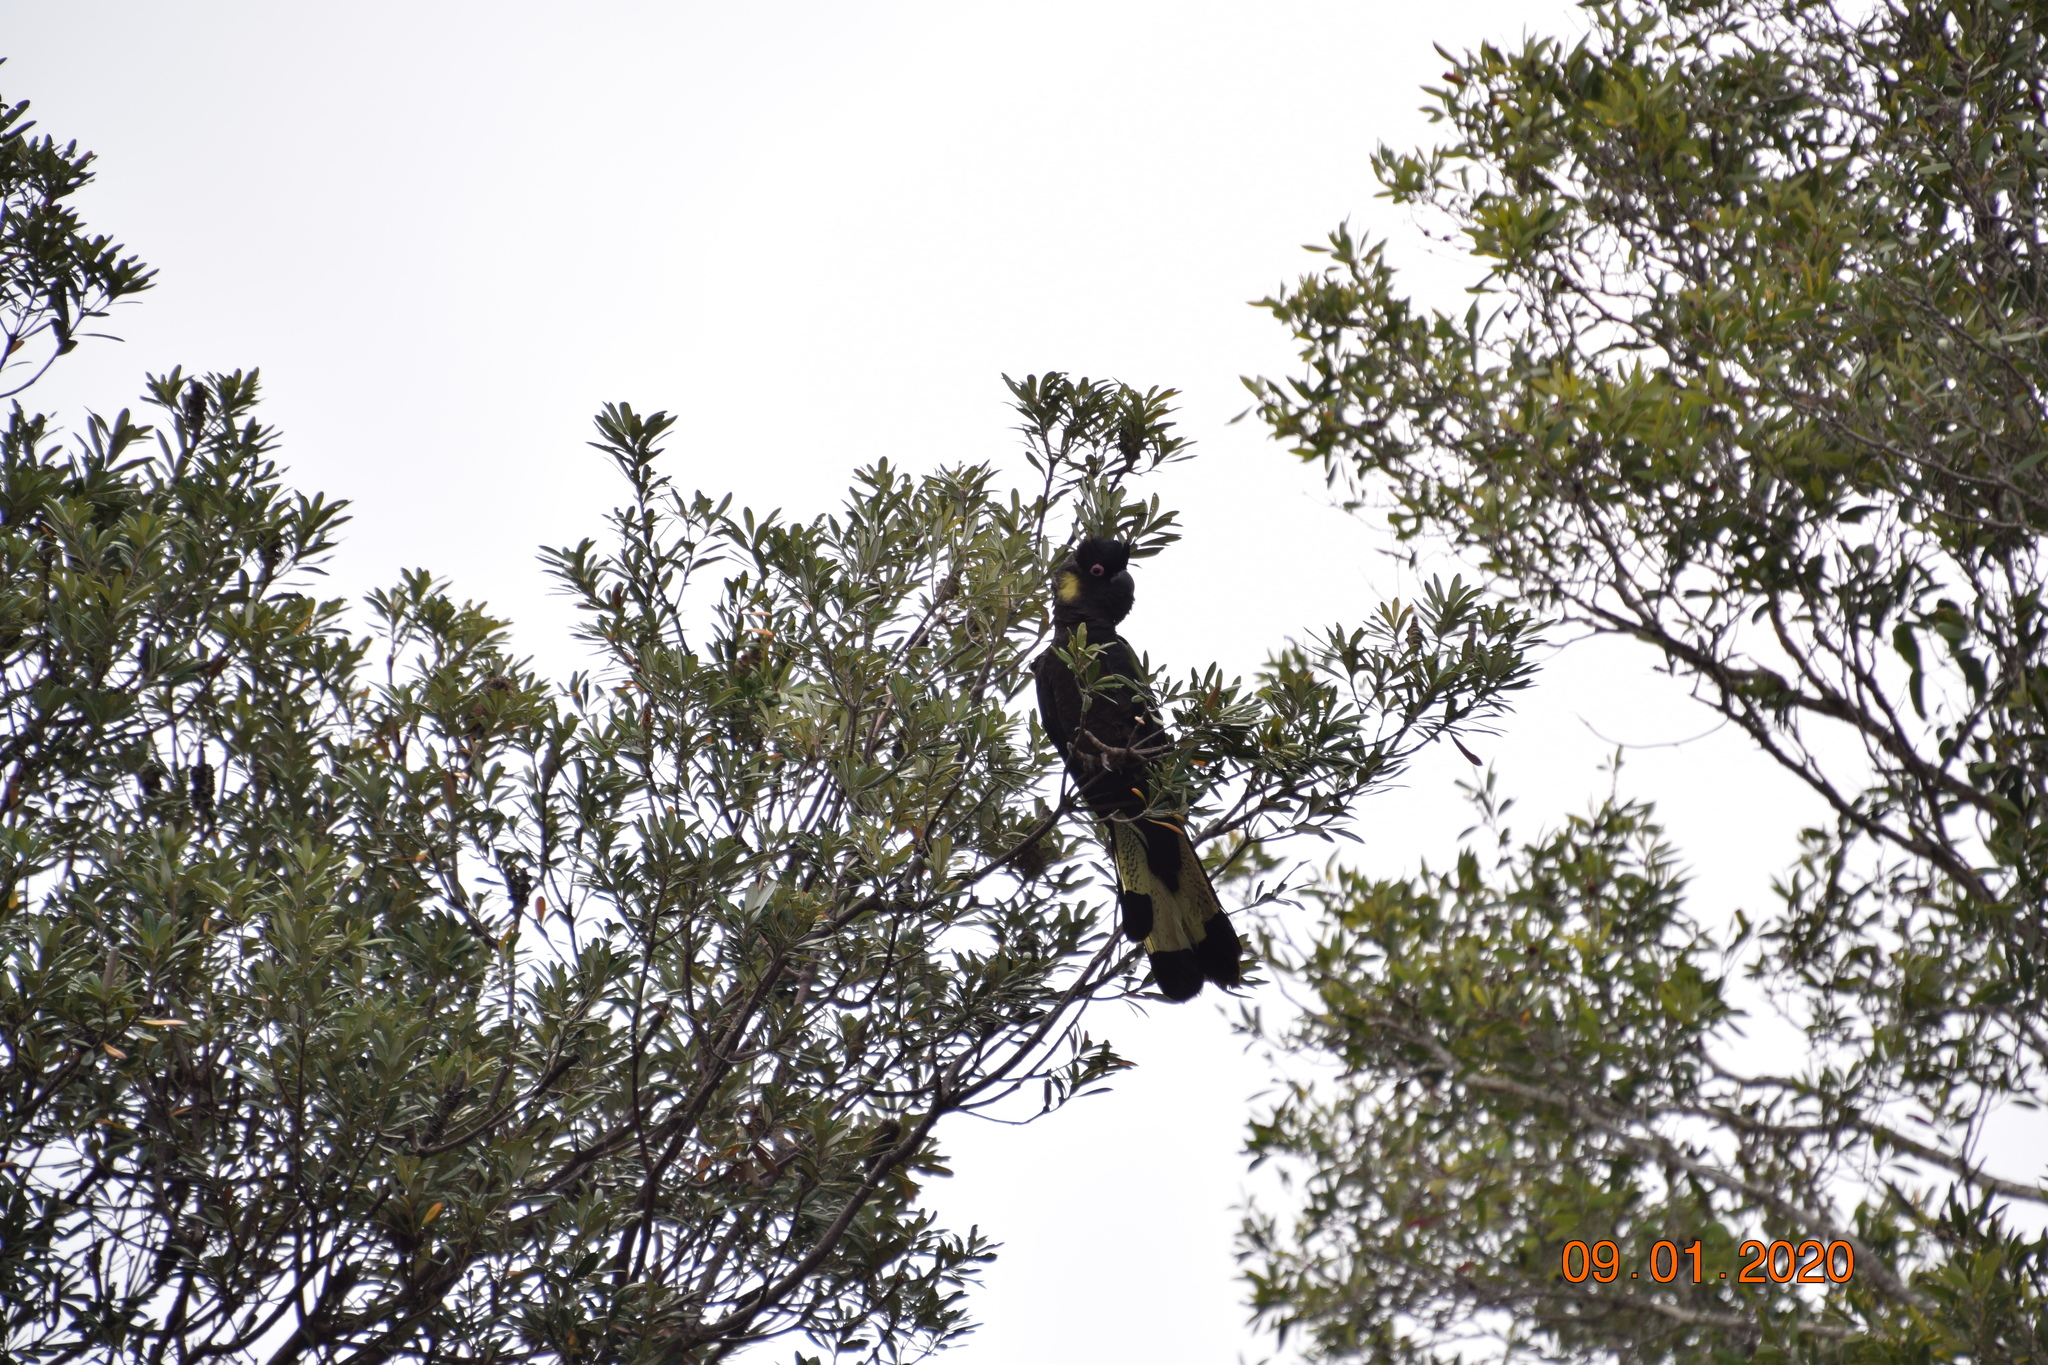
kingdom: Animalia
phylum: Chordata
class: Aves
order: Psittaciformes
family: Cacatuidae
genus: Zanda
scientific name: Zanda funerea
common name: Yellow-tailed black-cockatoo
